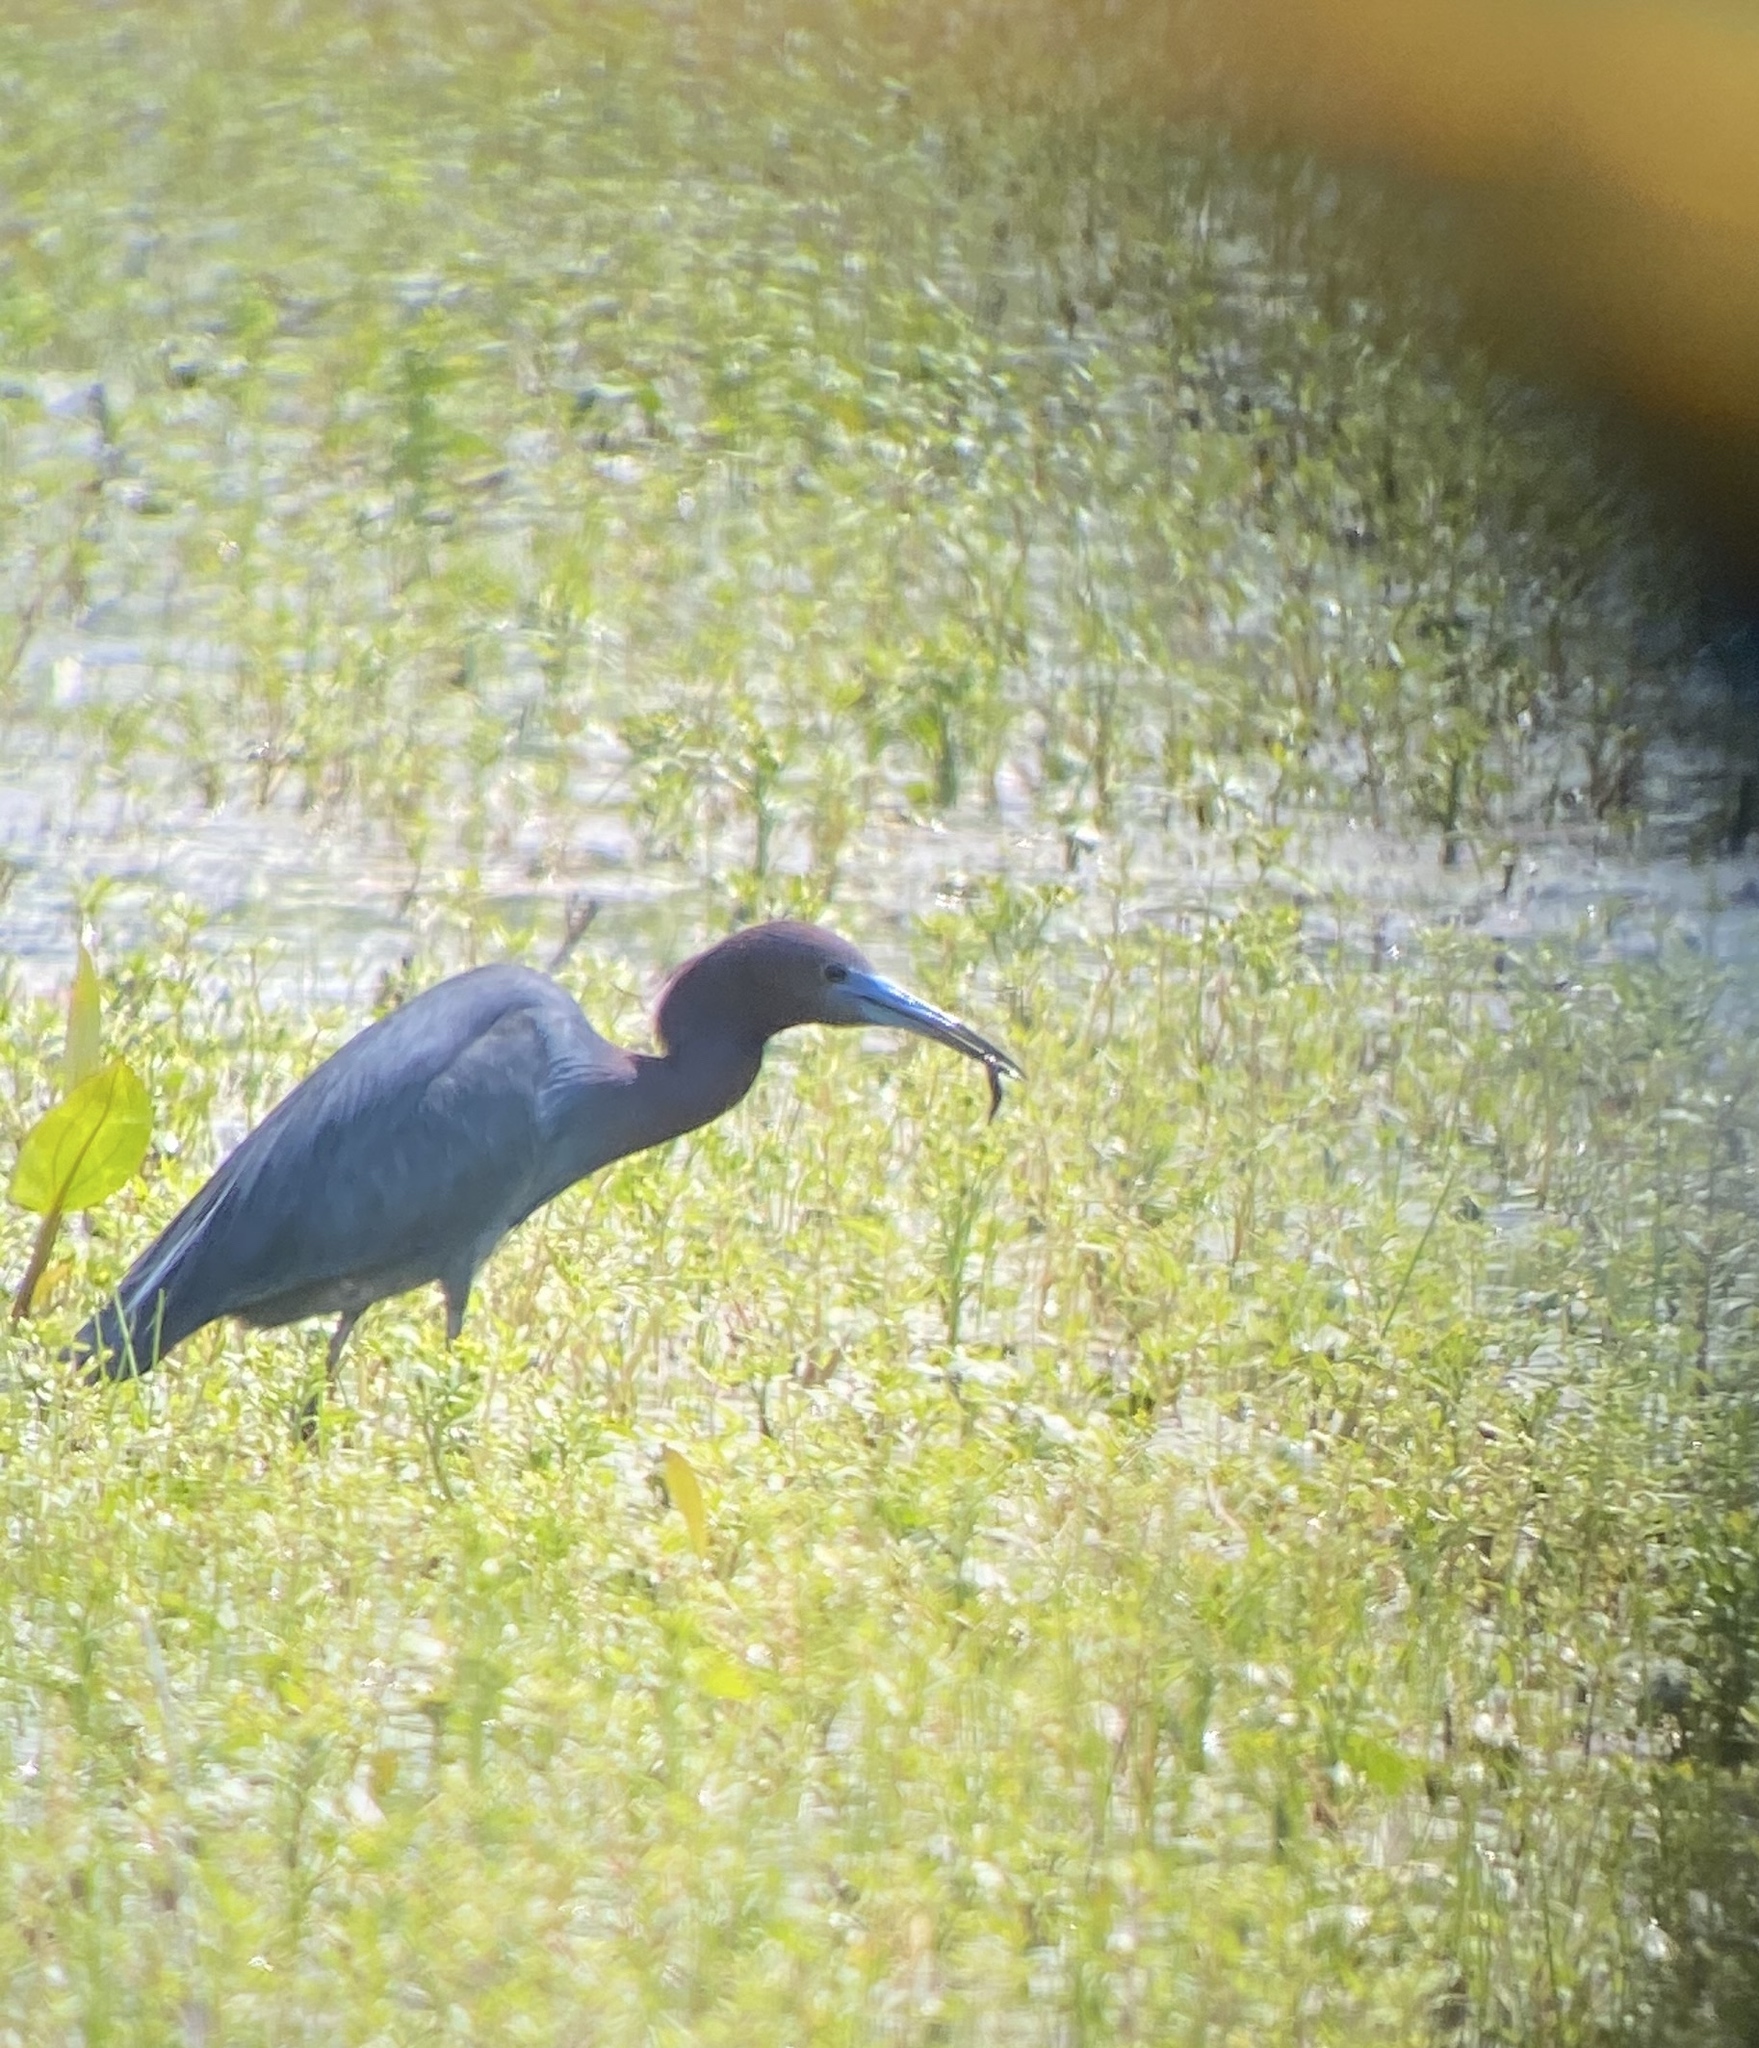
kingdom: Animalia
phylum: Chordata
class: Aves
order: Pelecaniformes
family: Ardeidae
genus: Egretta
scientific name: Egretta caerulea
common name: Little blue heron
